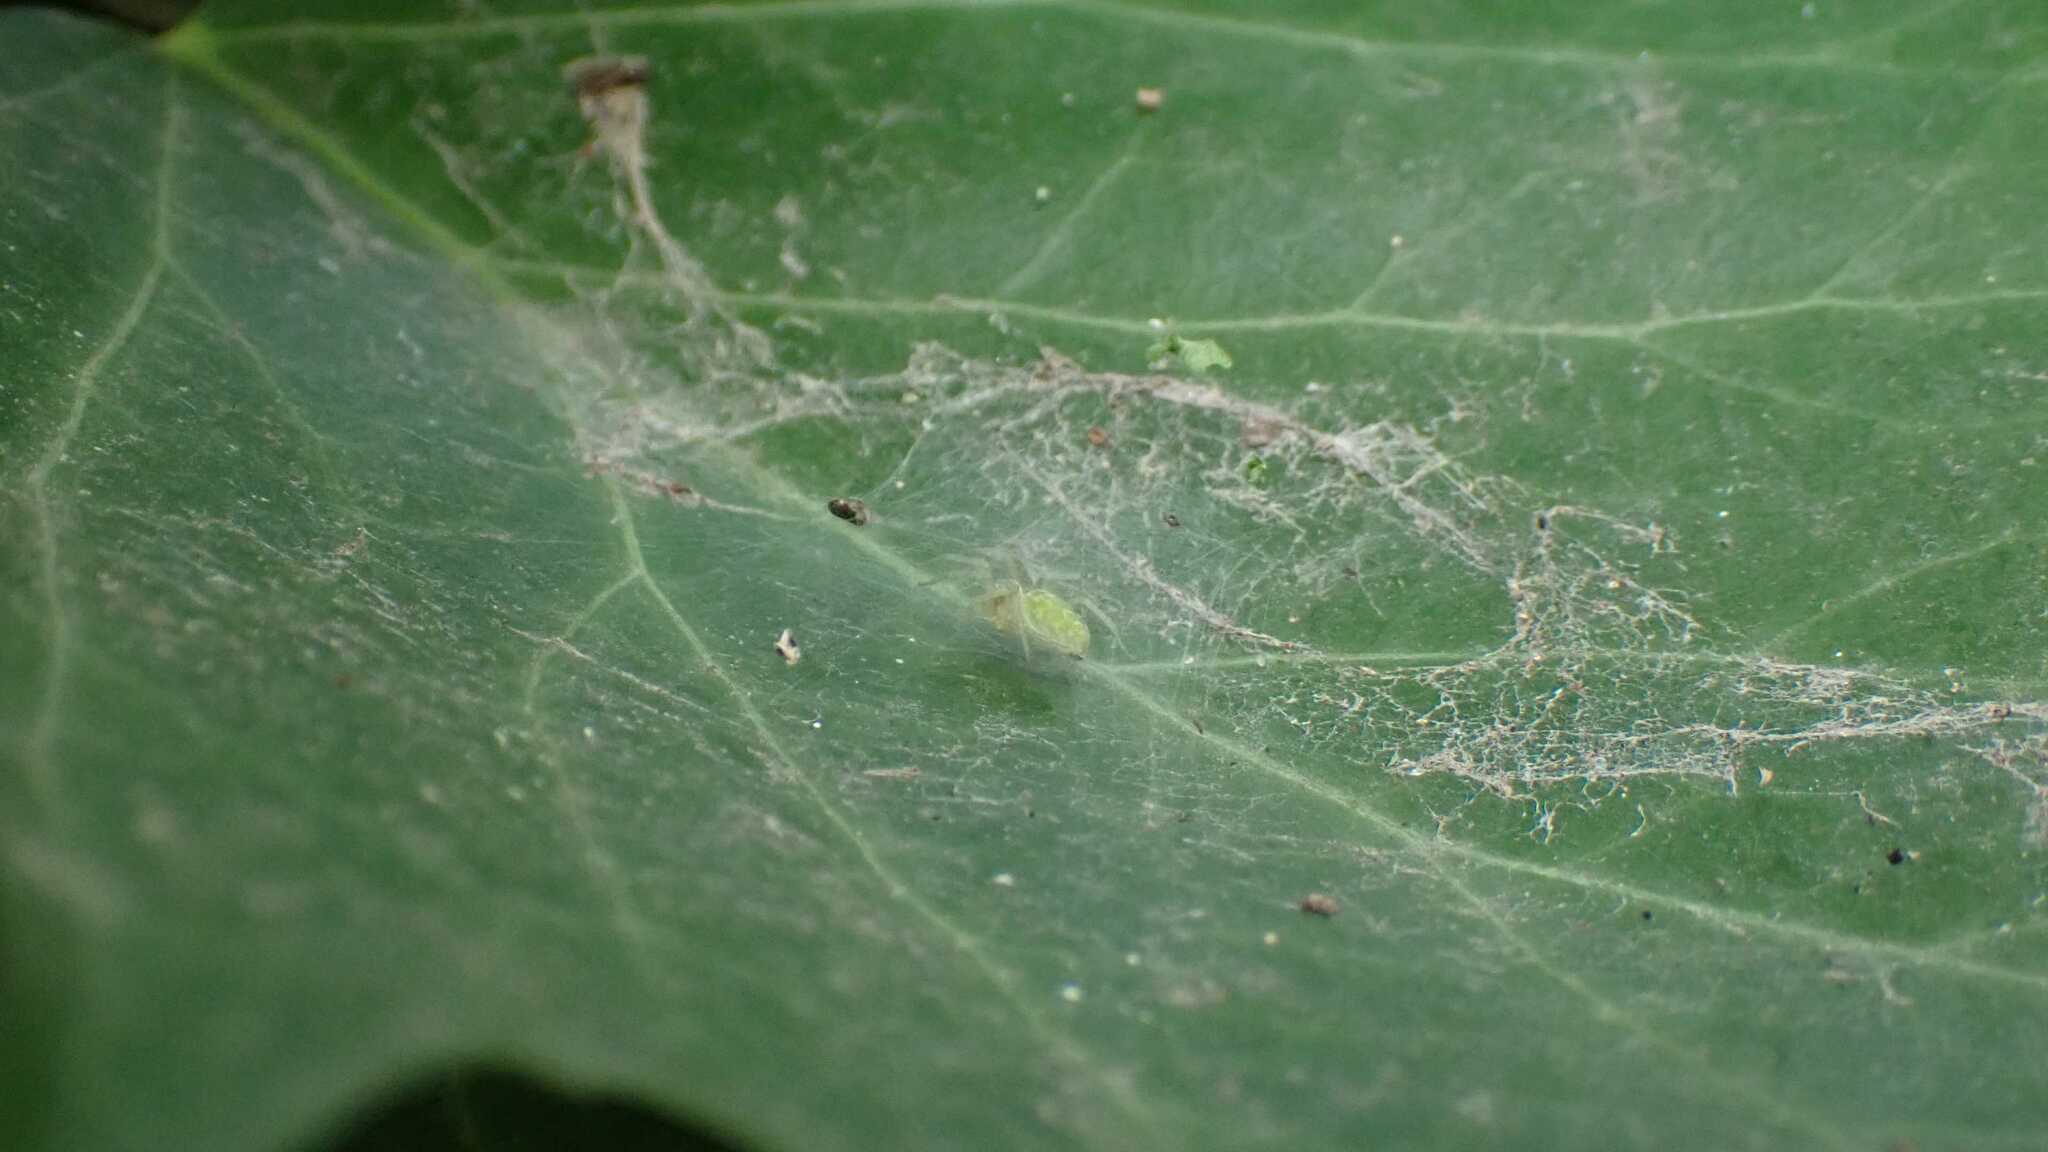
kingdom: Animalia
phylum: Arthropoda
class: Arachnida
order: Araneae
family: Dictynidae
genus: Nigma
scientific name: Nigma walckenaeri
